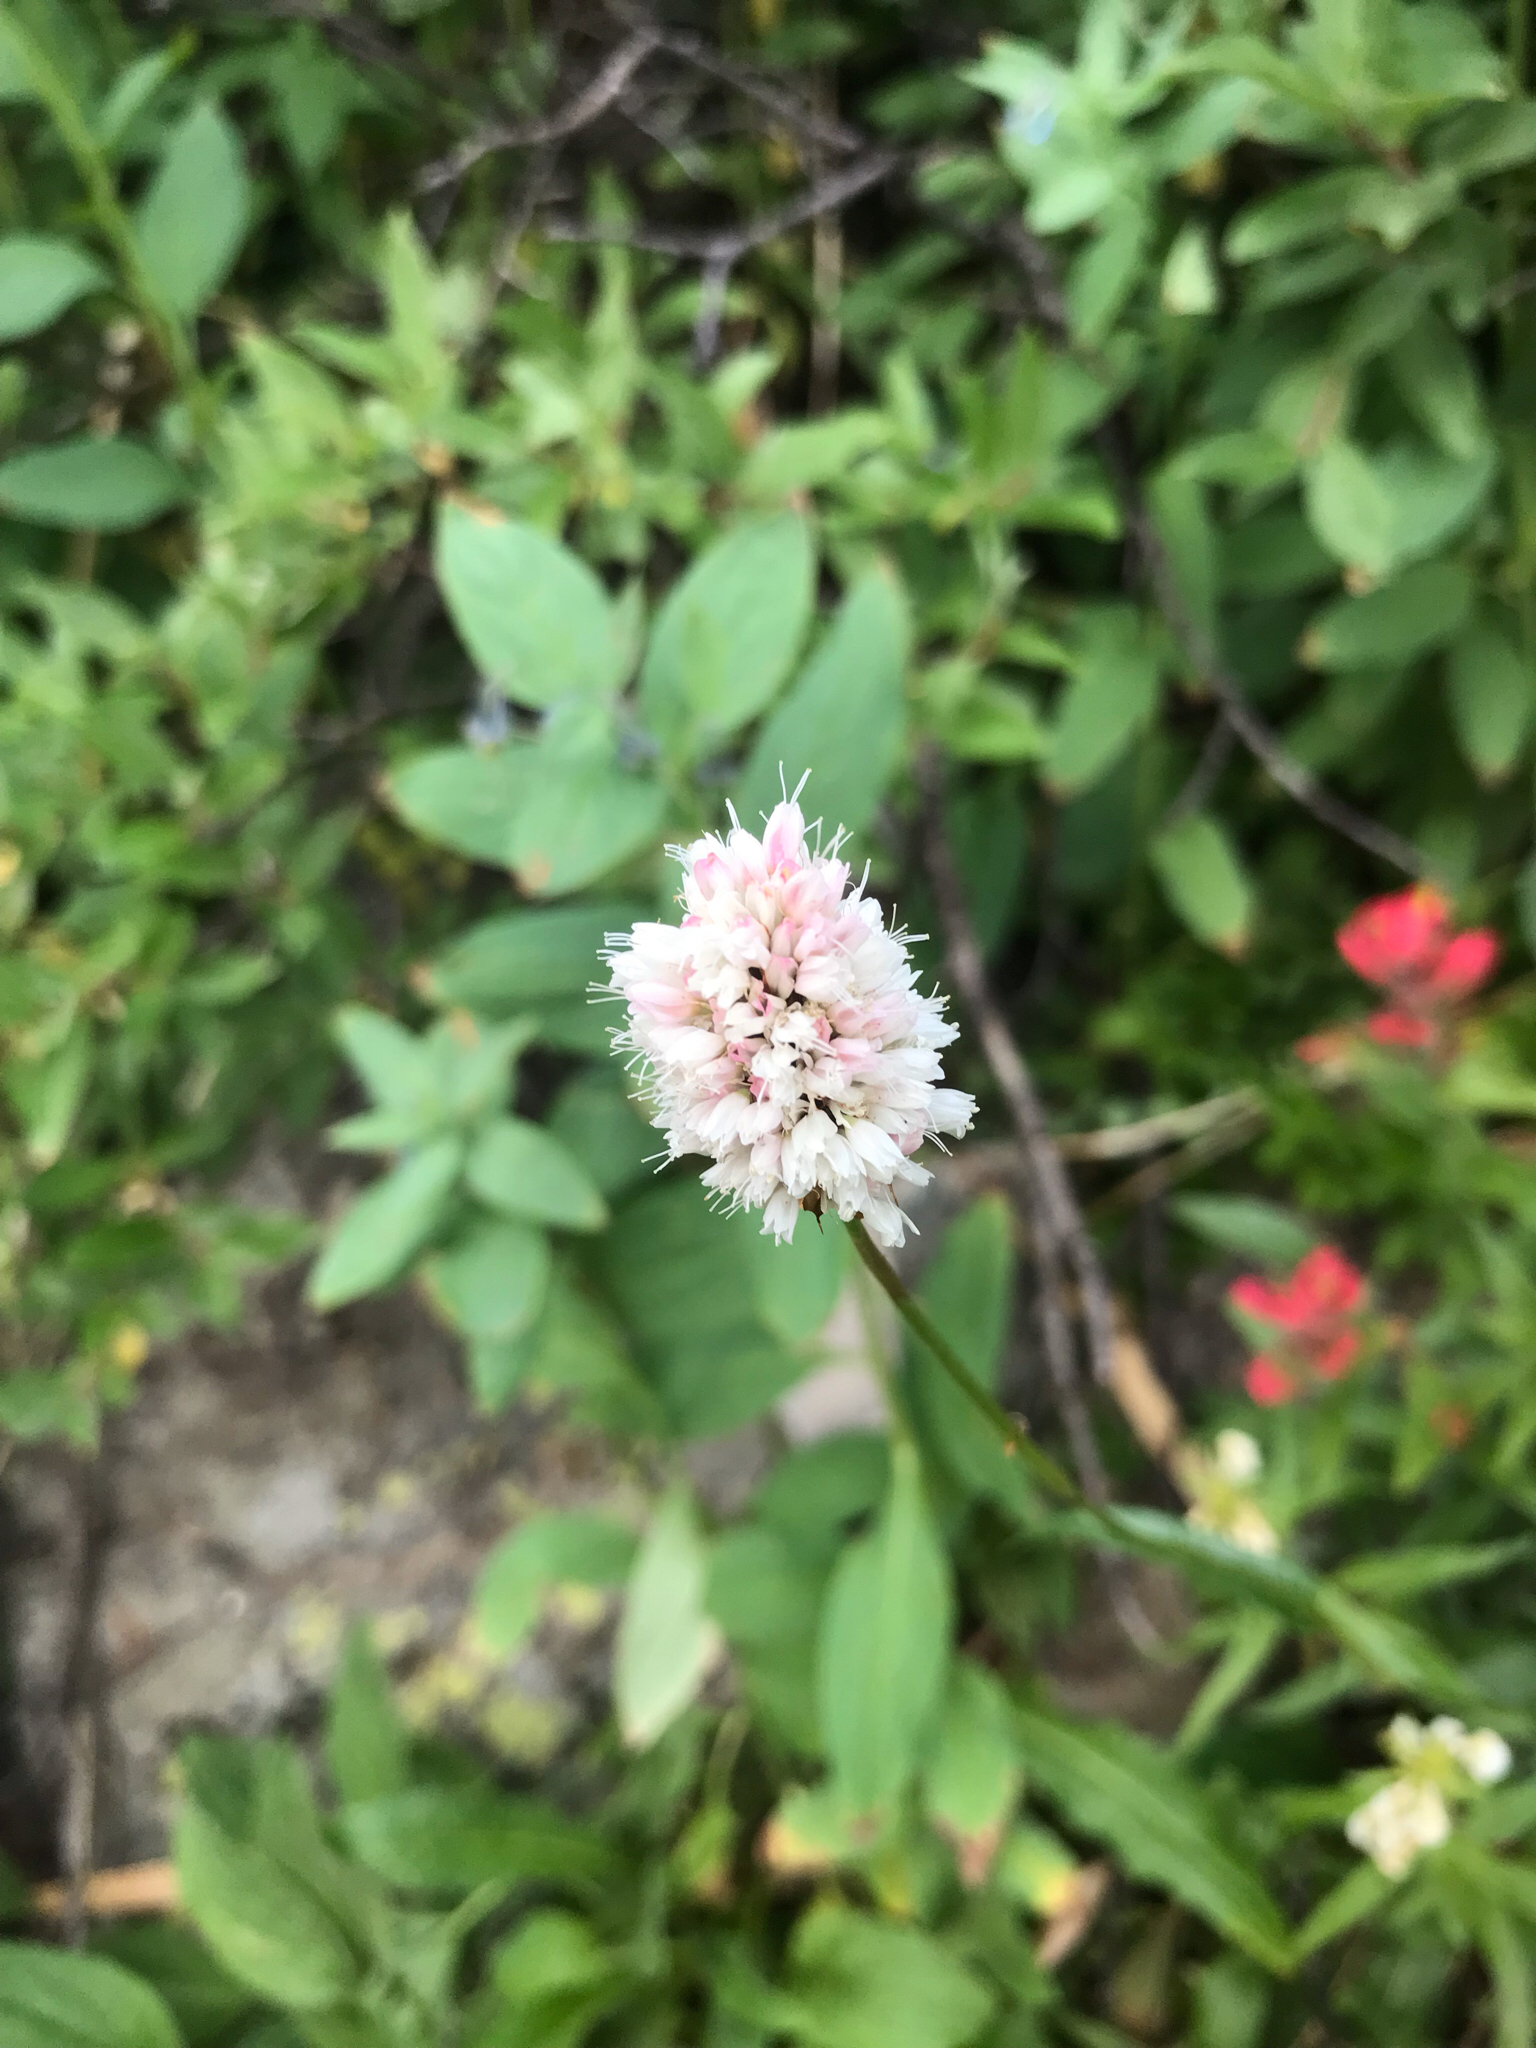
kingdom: Plantae
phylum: Tracheophyta
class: Magnoliopsida
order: Caryophyllales
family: Polygonaceae
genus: Bistorta
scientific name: Bistorta bistortoides
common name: American bistort
